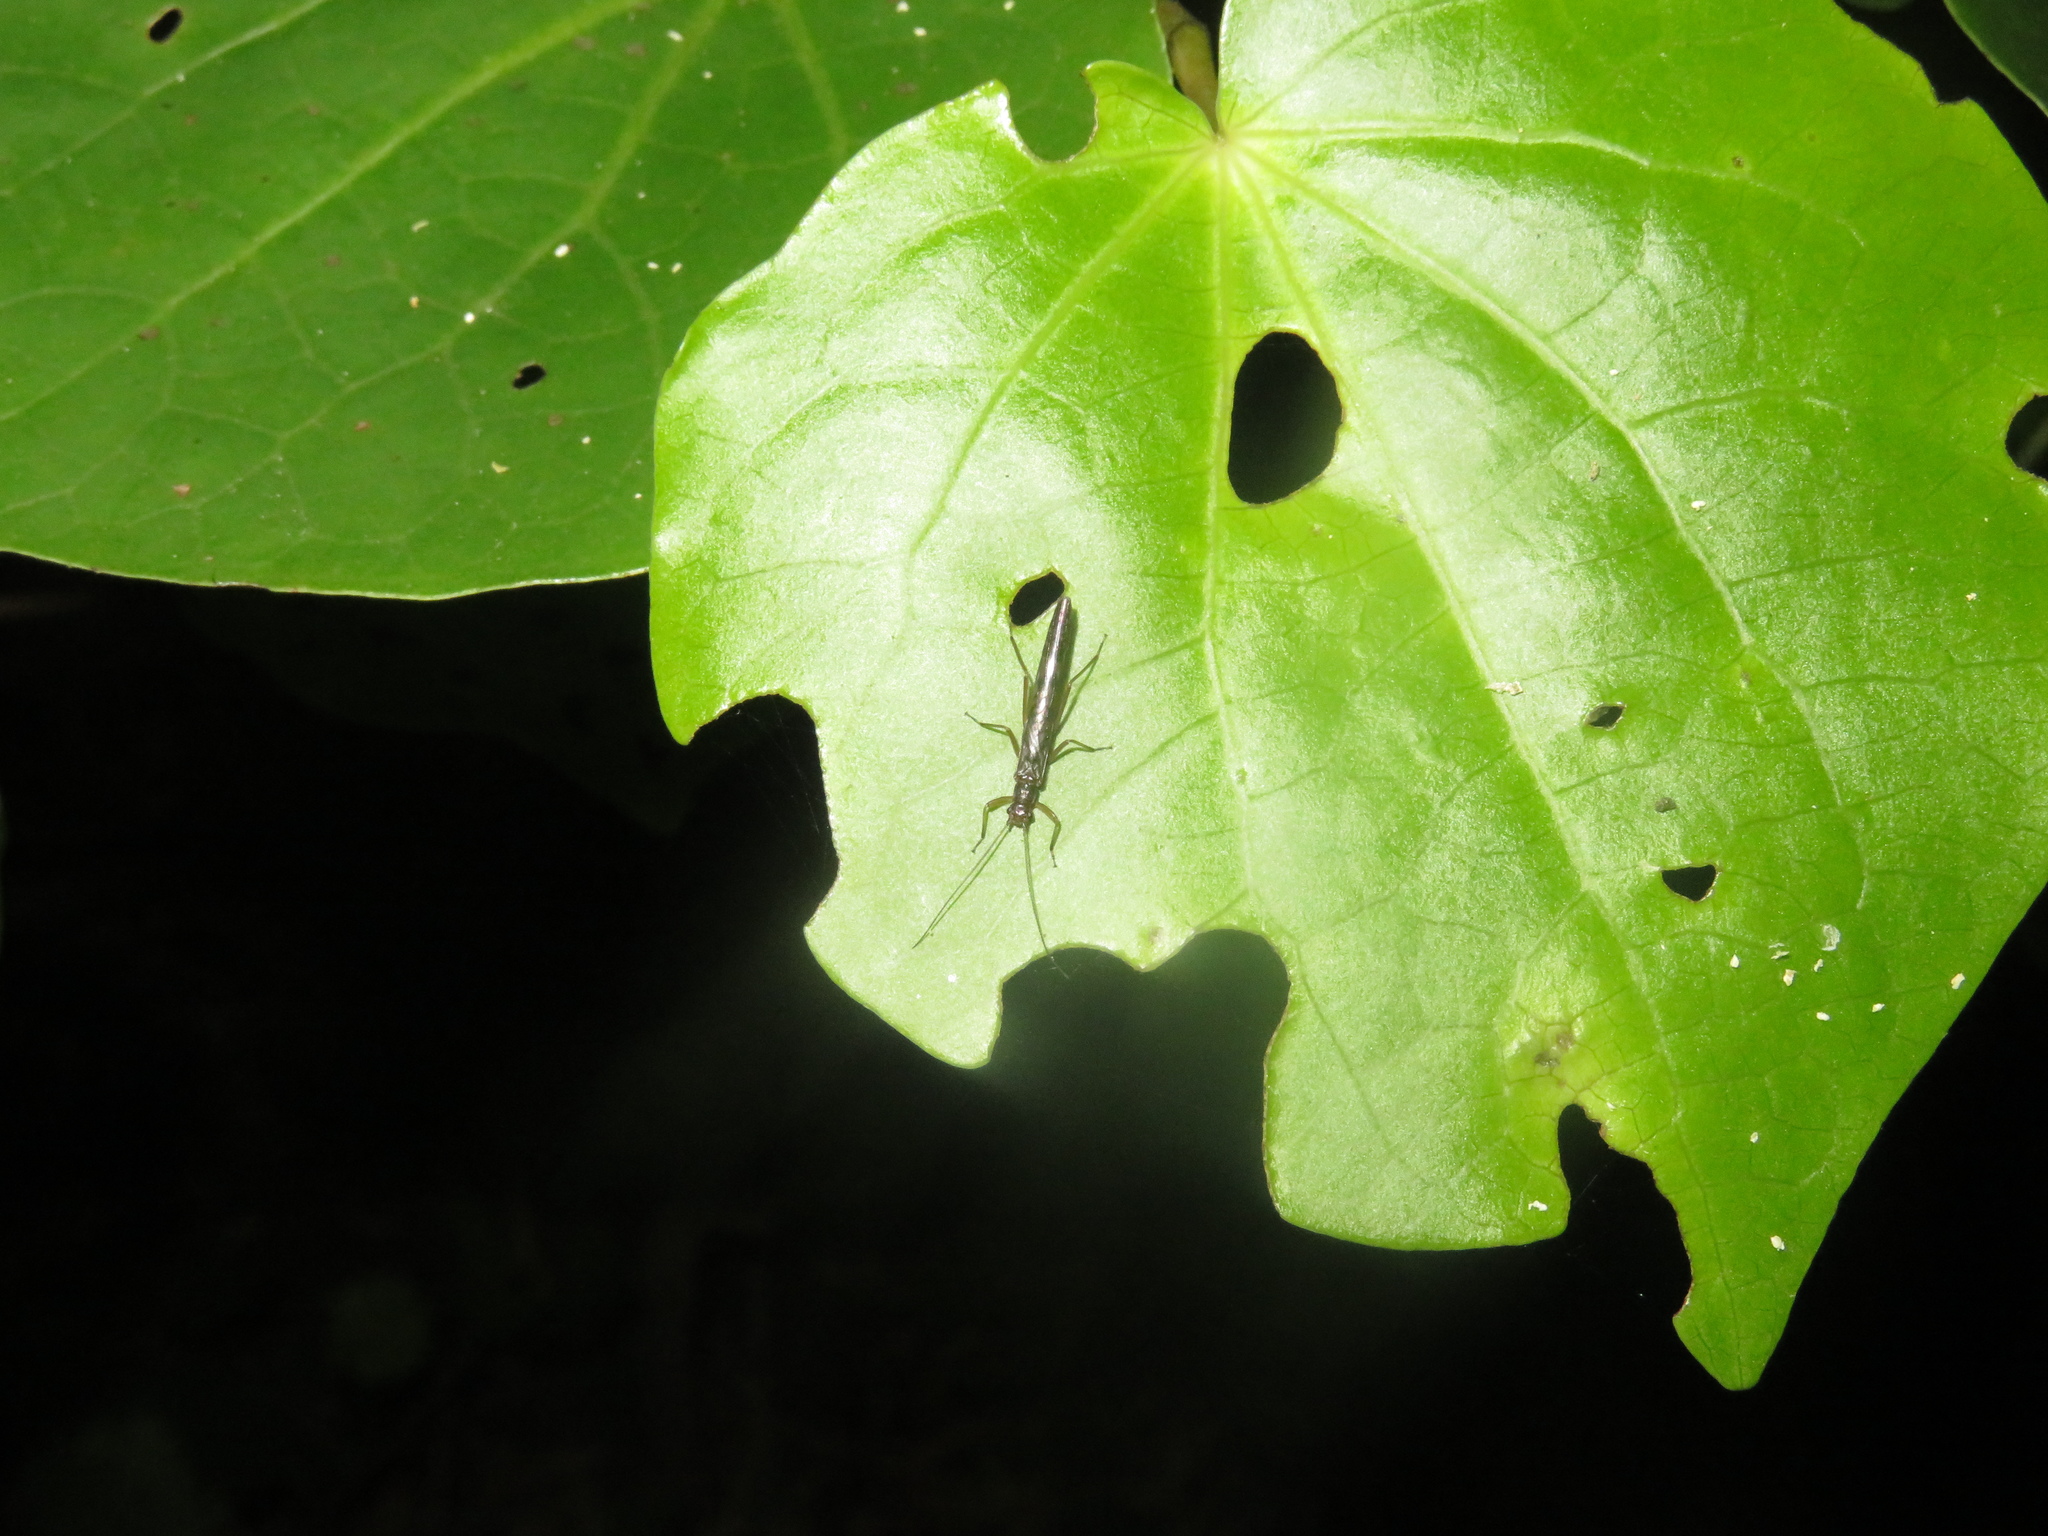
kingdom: Animalia
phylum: Arthropoda
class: Insecta
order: Plecoptera
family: Gripopterygidae
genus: Acroperla
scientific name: Acroperla trivacuata
